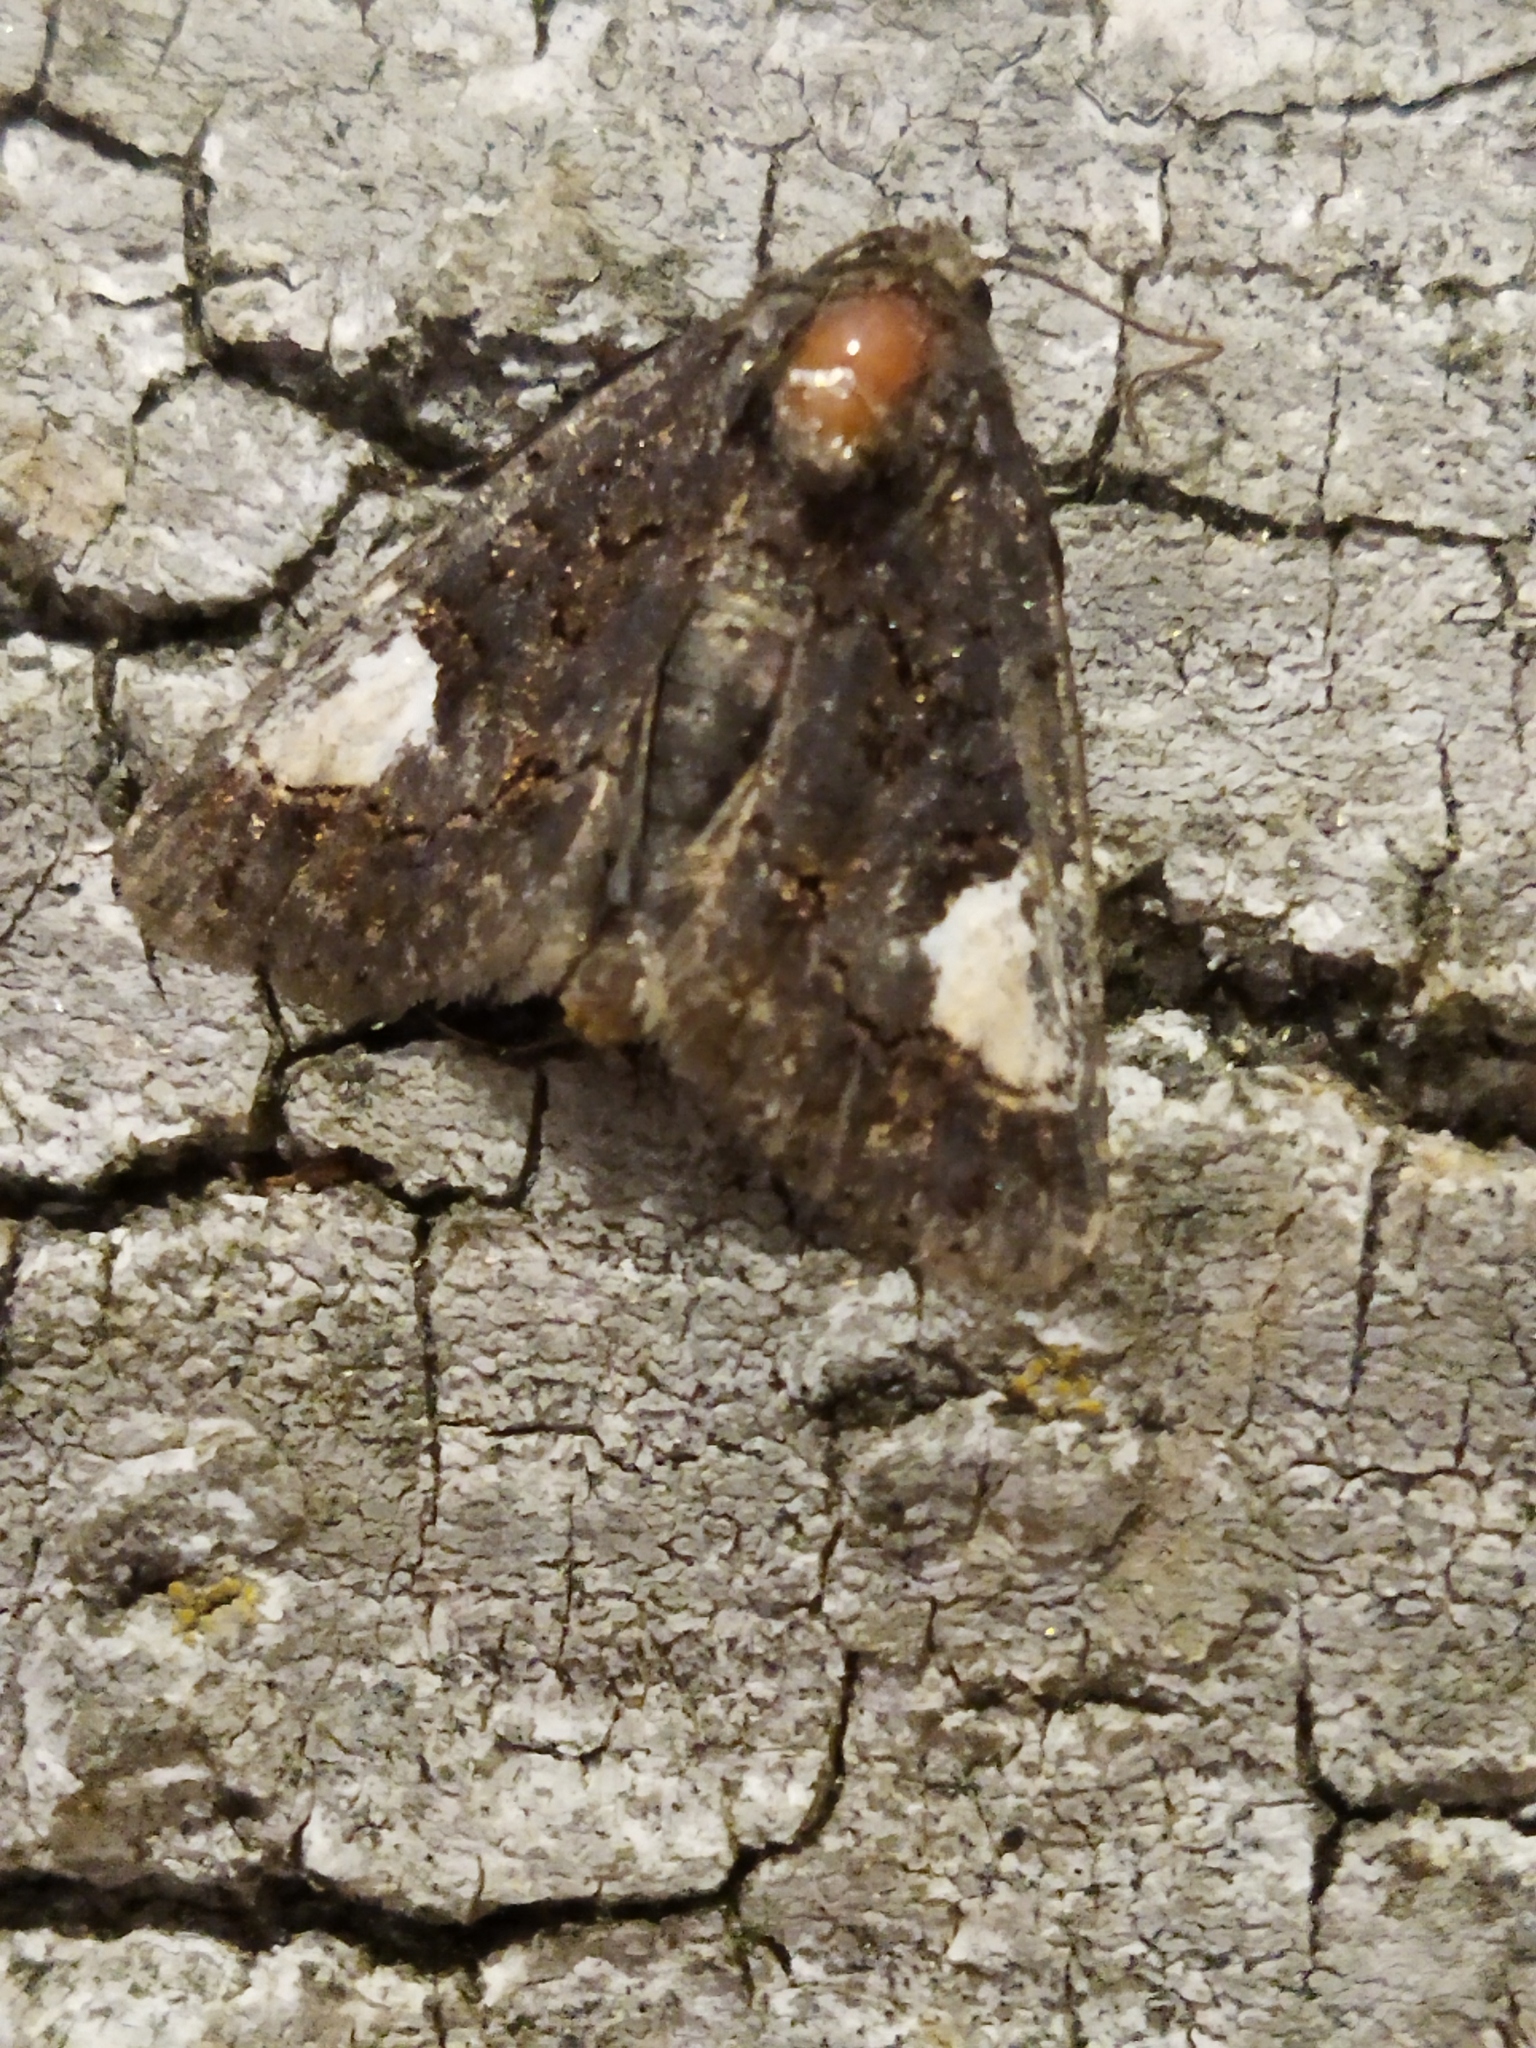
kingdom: Animalia
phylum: Arthropoda
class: Insecta
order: Lepidoptera
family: Noctuidae
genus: Aedia
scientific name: Aedia funesta
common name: The druid
